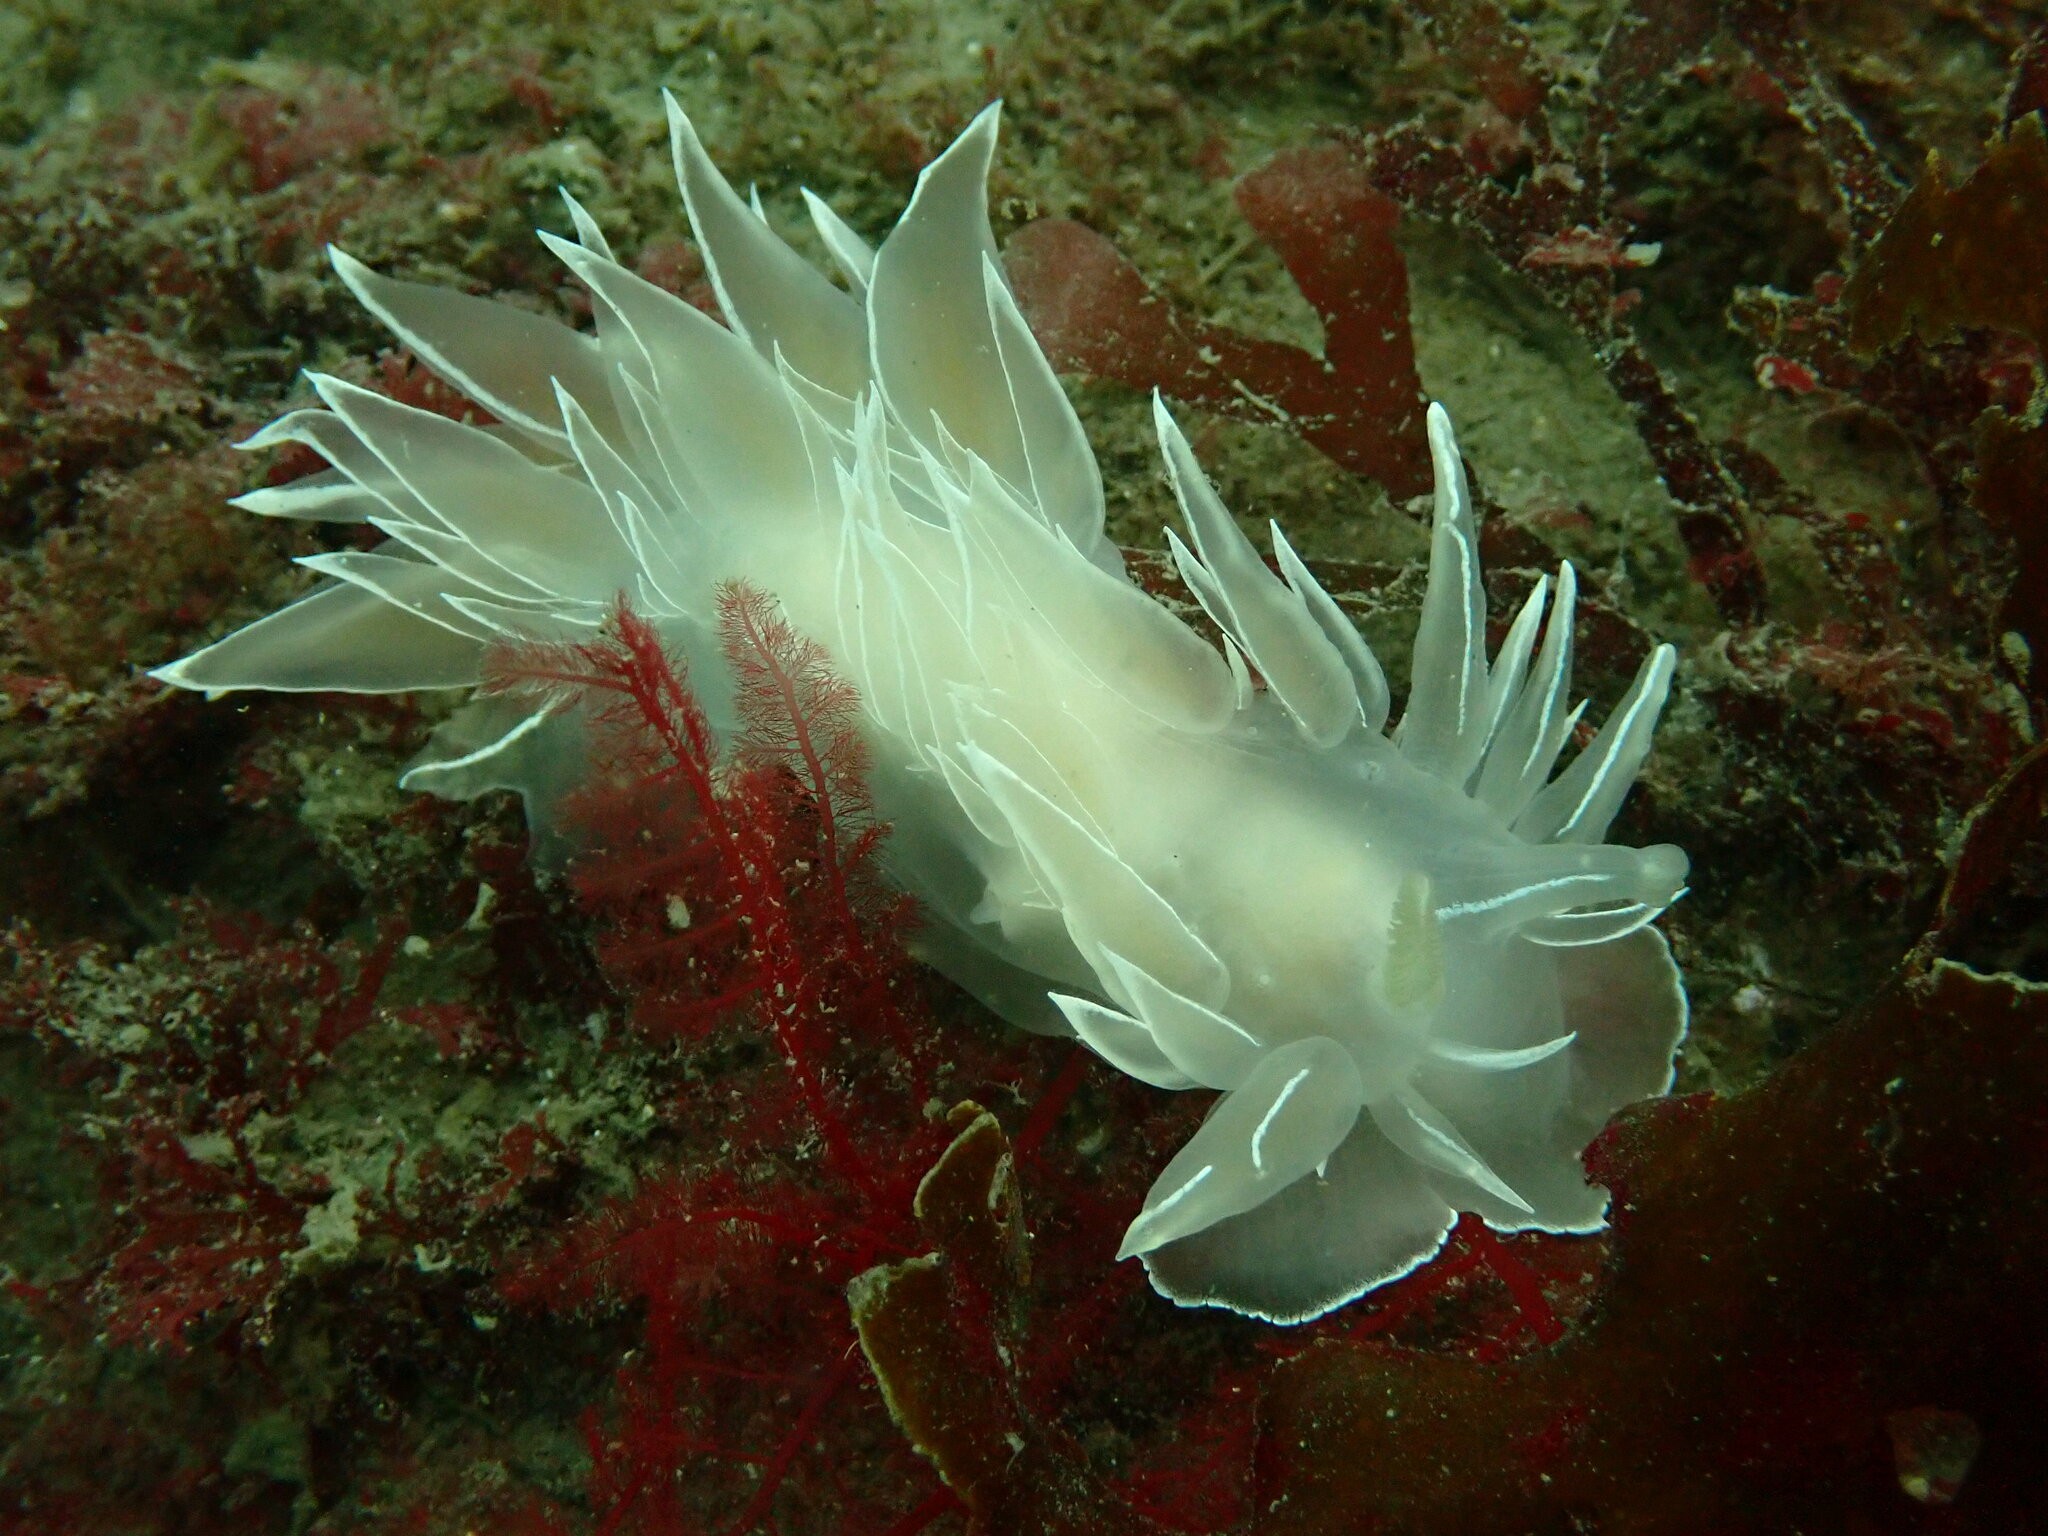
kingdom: Animalia
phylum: Mollusca
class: Gastropoda
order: Nudibranchia
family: Dironidae
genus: Dirona
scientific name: Dirona albolineata
